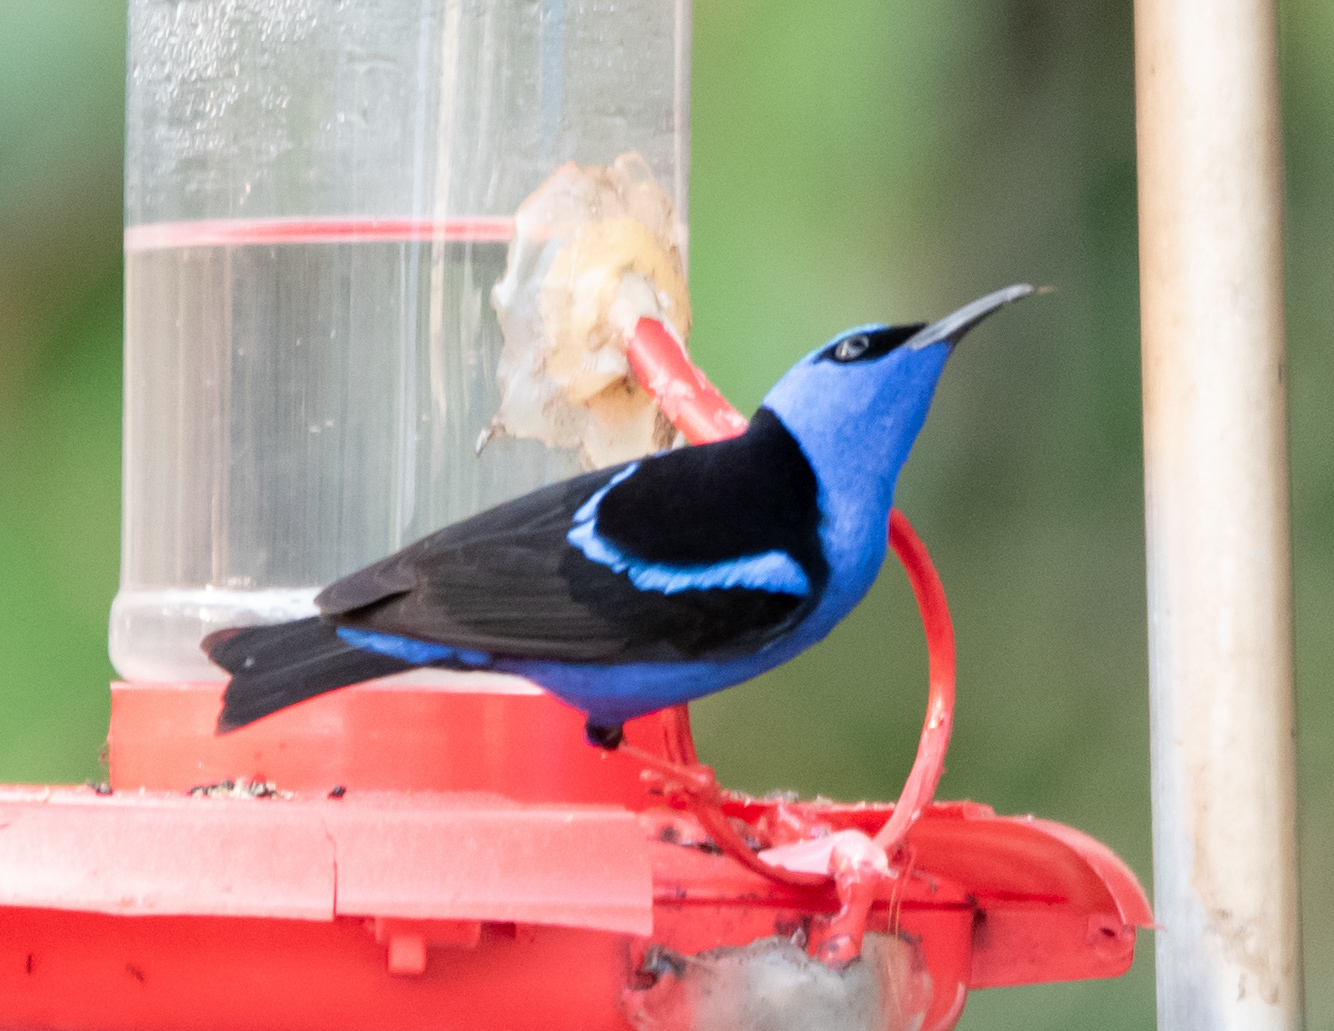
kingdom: Animalia
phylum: Chordata
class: Aves
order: Passeriformes
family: Thraupidae
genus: Cyanerpes
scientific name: Cyanerpes cyaneus
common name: Red-legged honeycreeper
